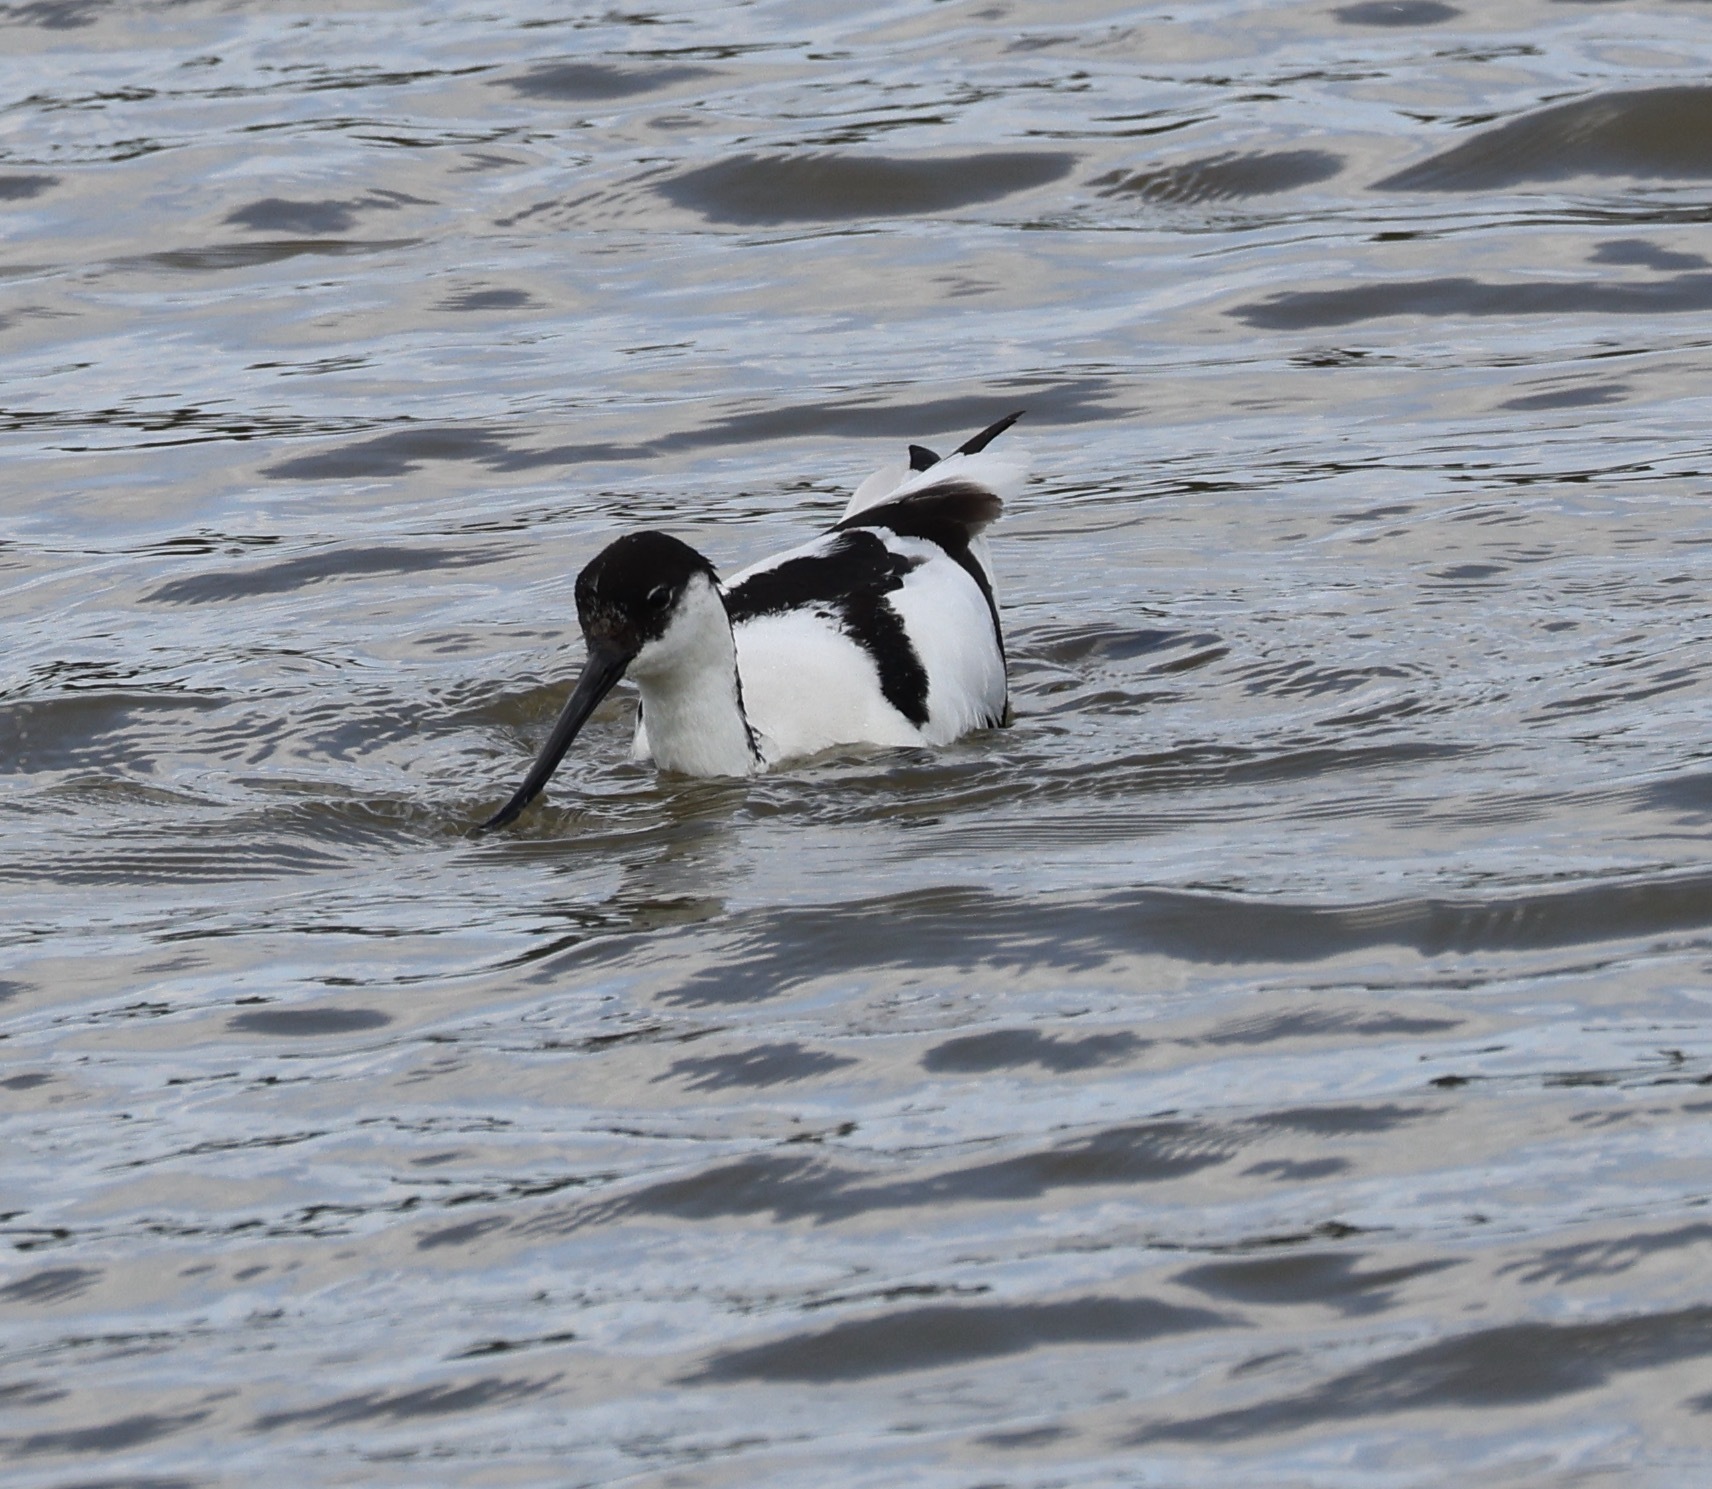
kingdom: Animalia
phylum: Chordata
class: Aves
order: Charadriiformes
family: Recurvirostridae
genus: Recurvirostra
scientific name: Recurvirostra avosetta
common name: Pied avocet
